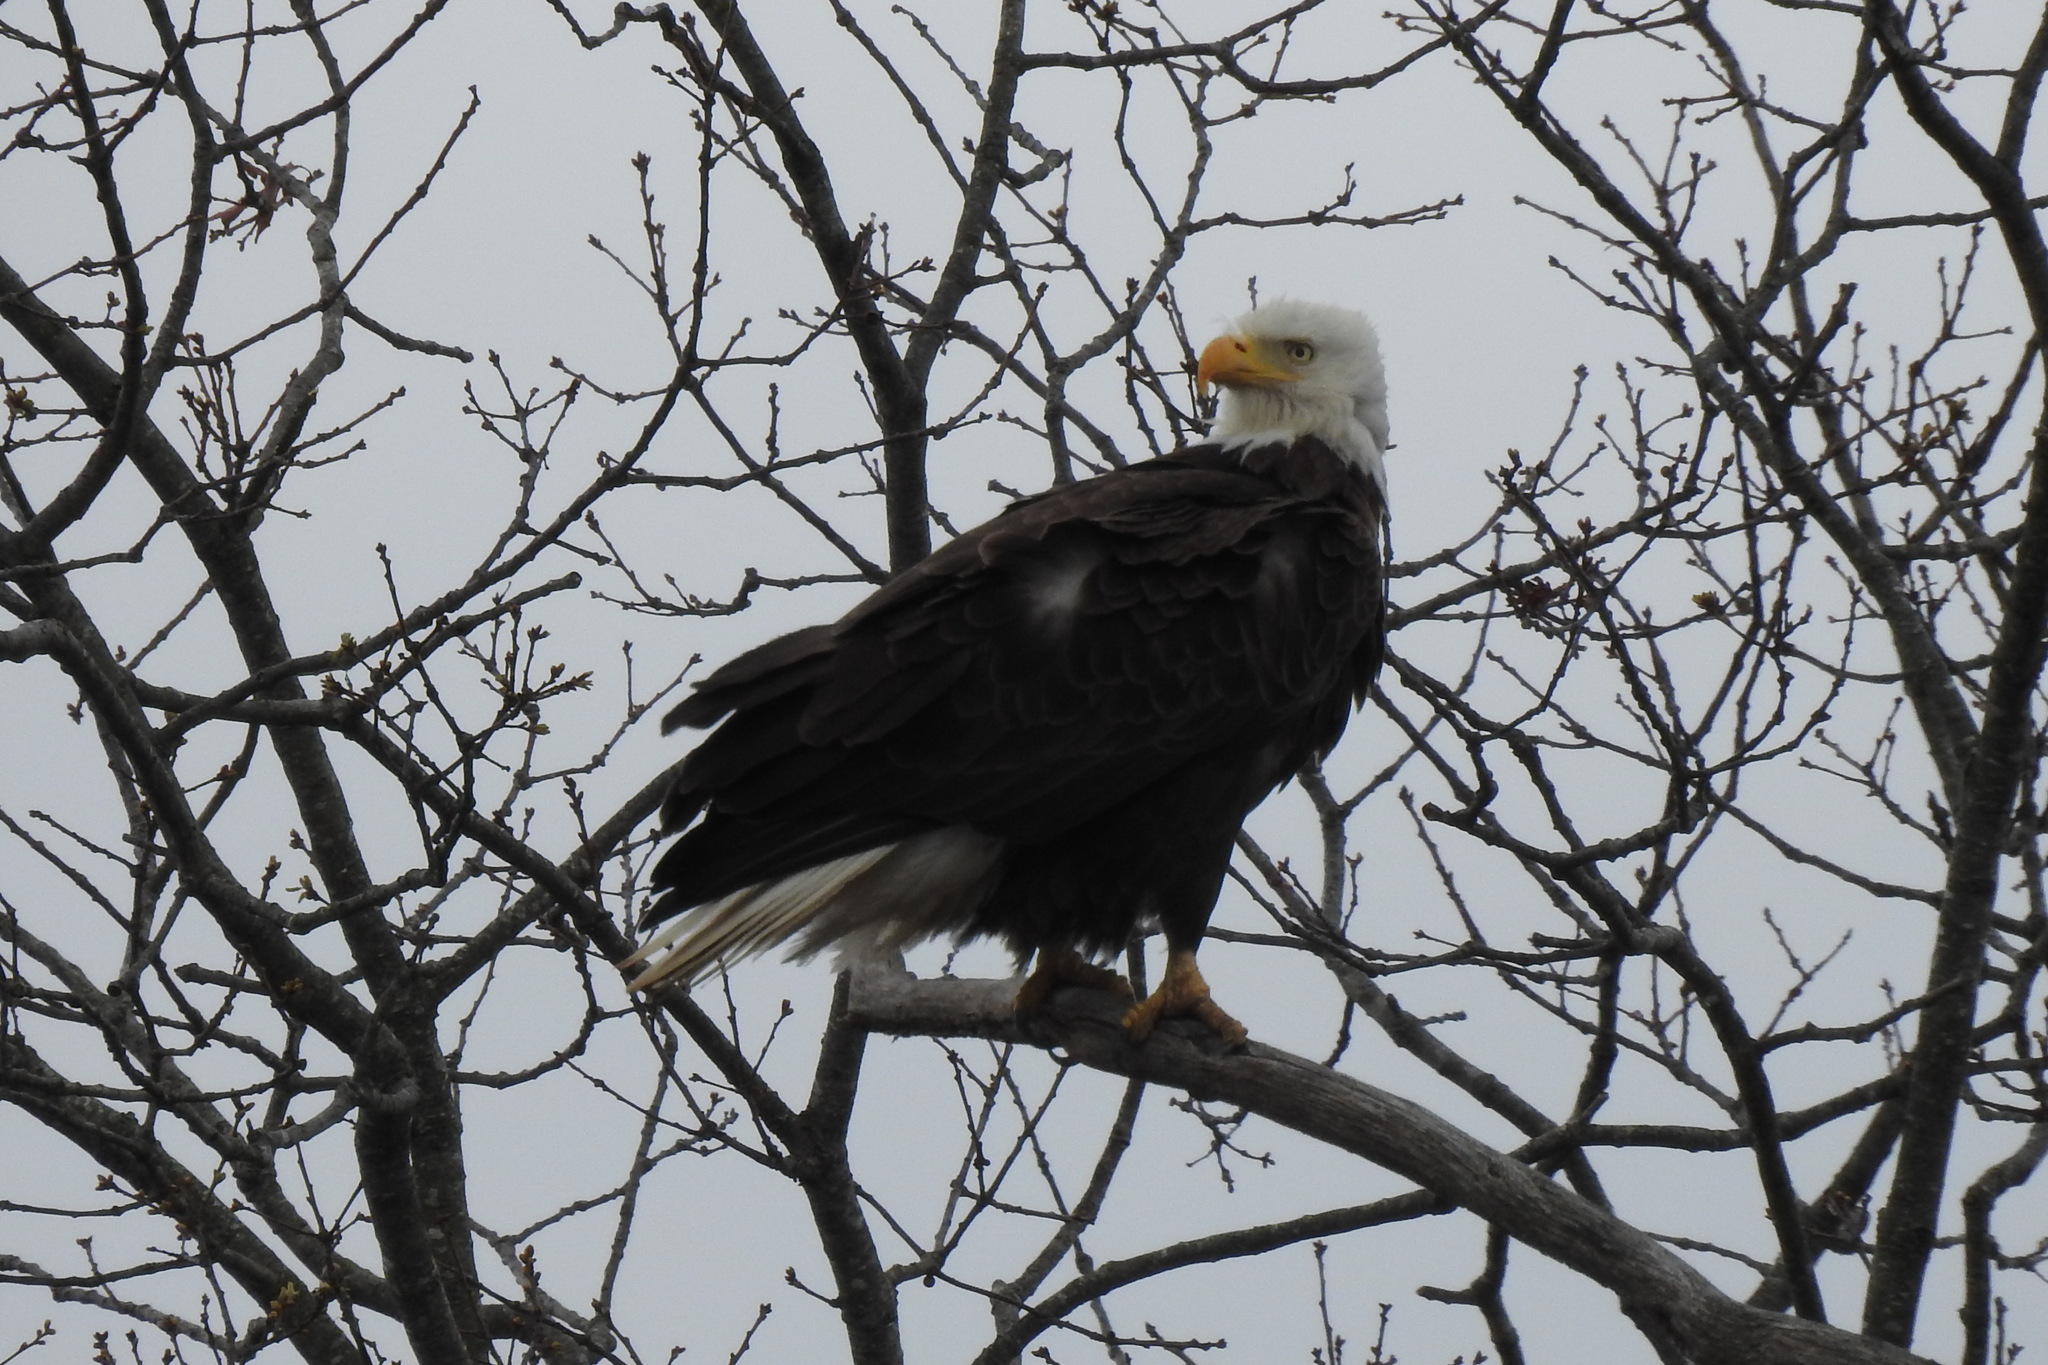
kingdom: Animalia
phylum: Chordata
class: Aves
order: Accipitriformes
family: Accipitridae
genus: Haliaeetus
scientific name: Haliaeetus leucocephalus
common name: Bald eagle
